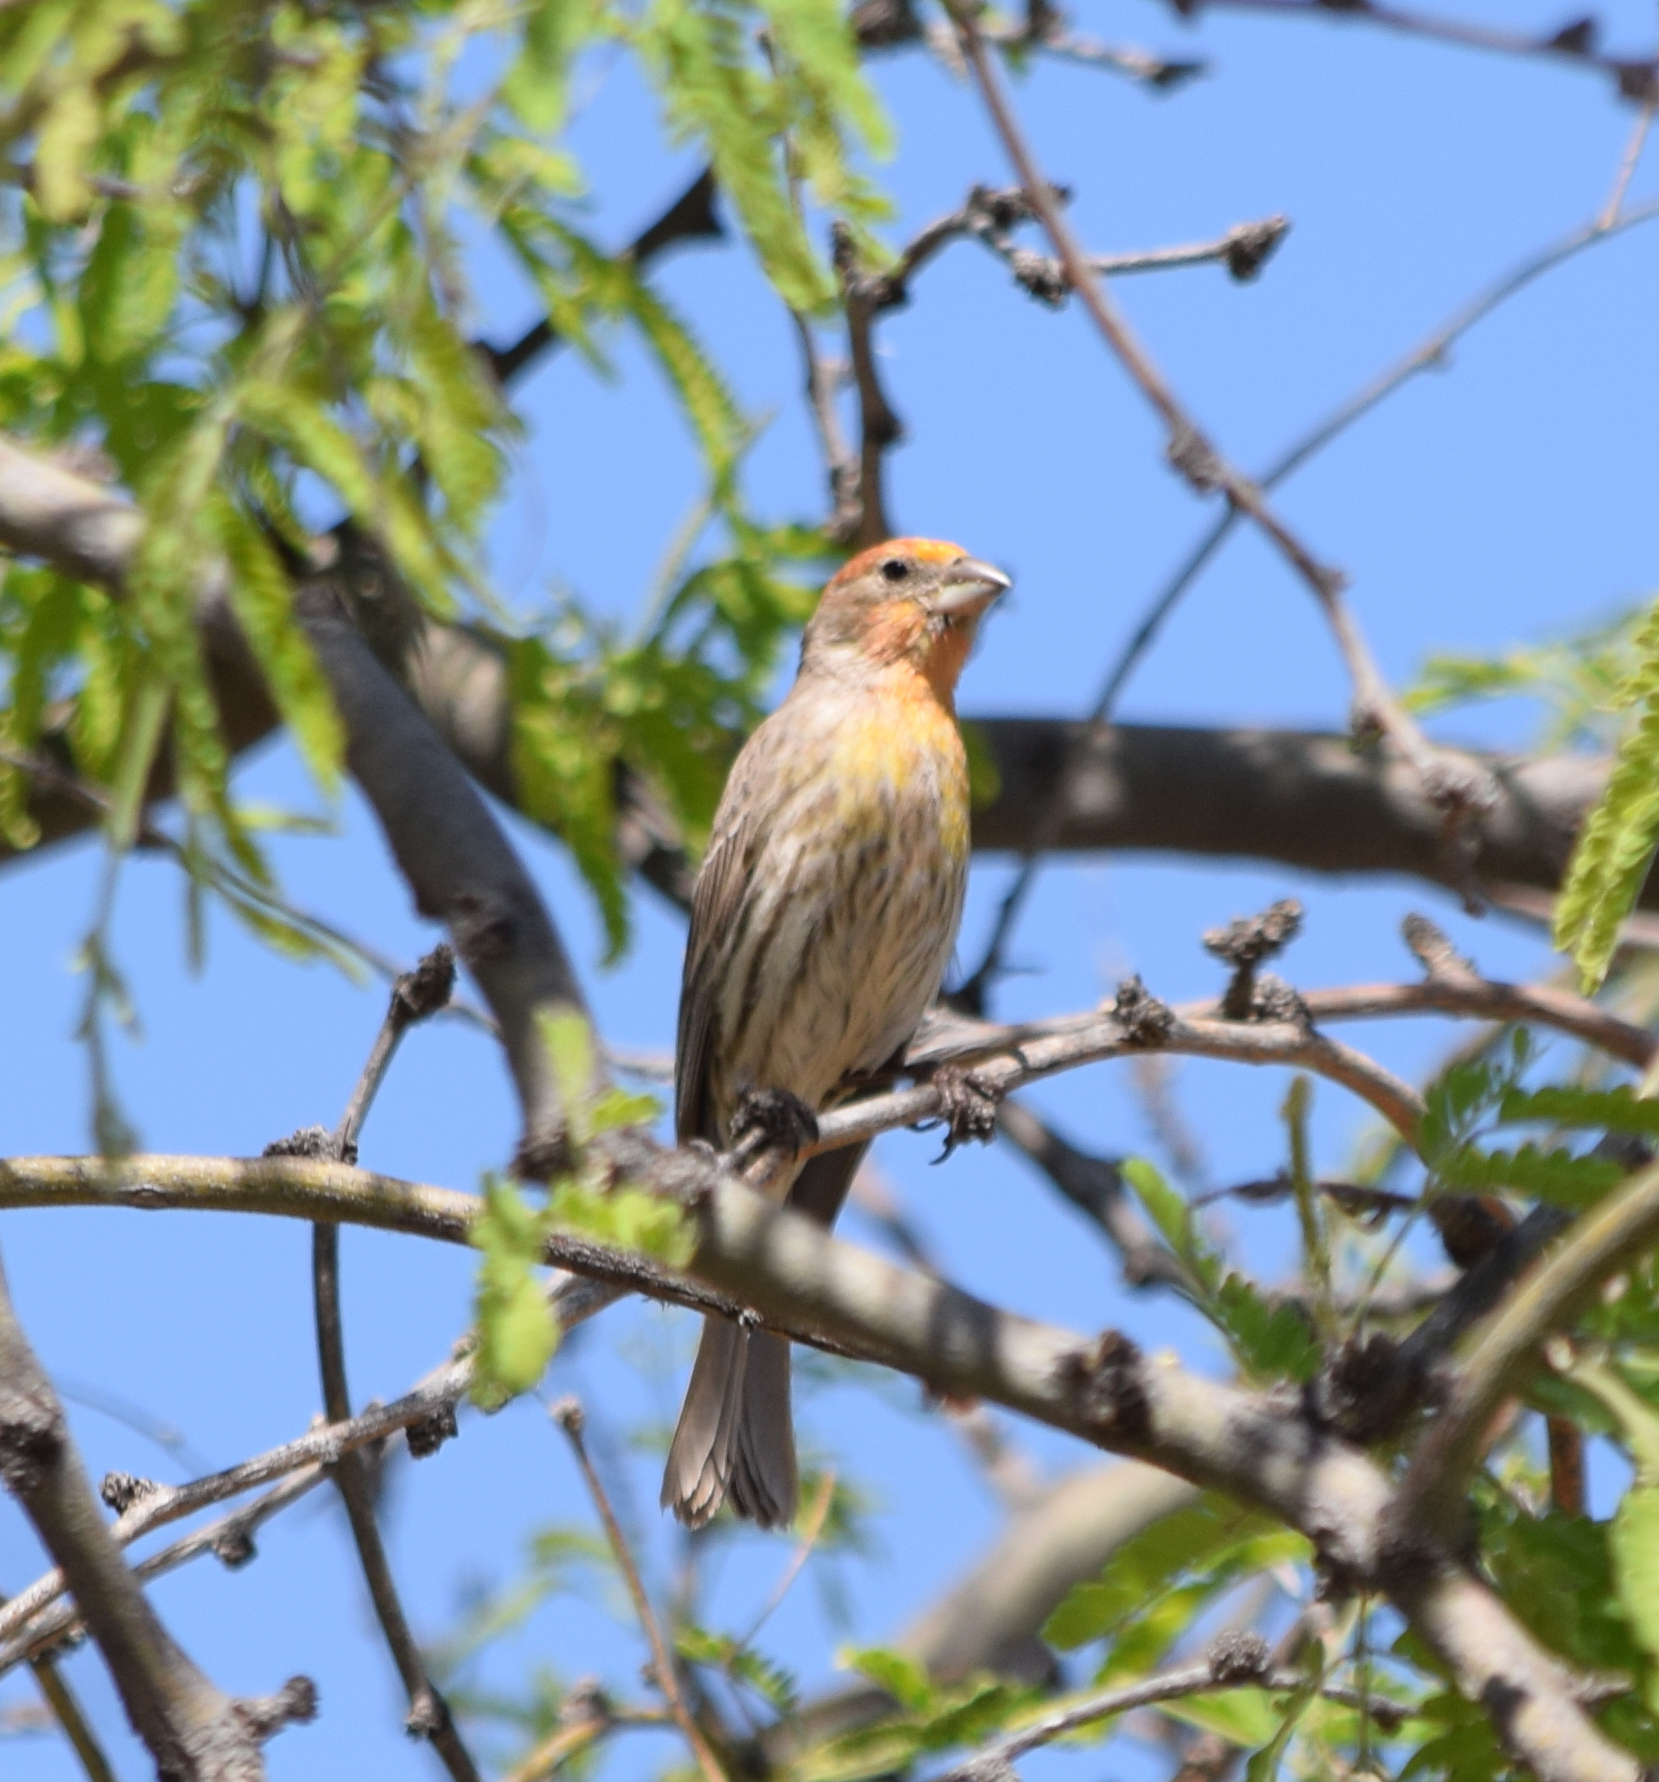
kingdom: Animalia
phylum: Chordata
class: Aves
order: Passeriformes
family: Fringillidae
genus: Haemorhous
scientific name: Haemorhous mexicanus
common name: House finch
